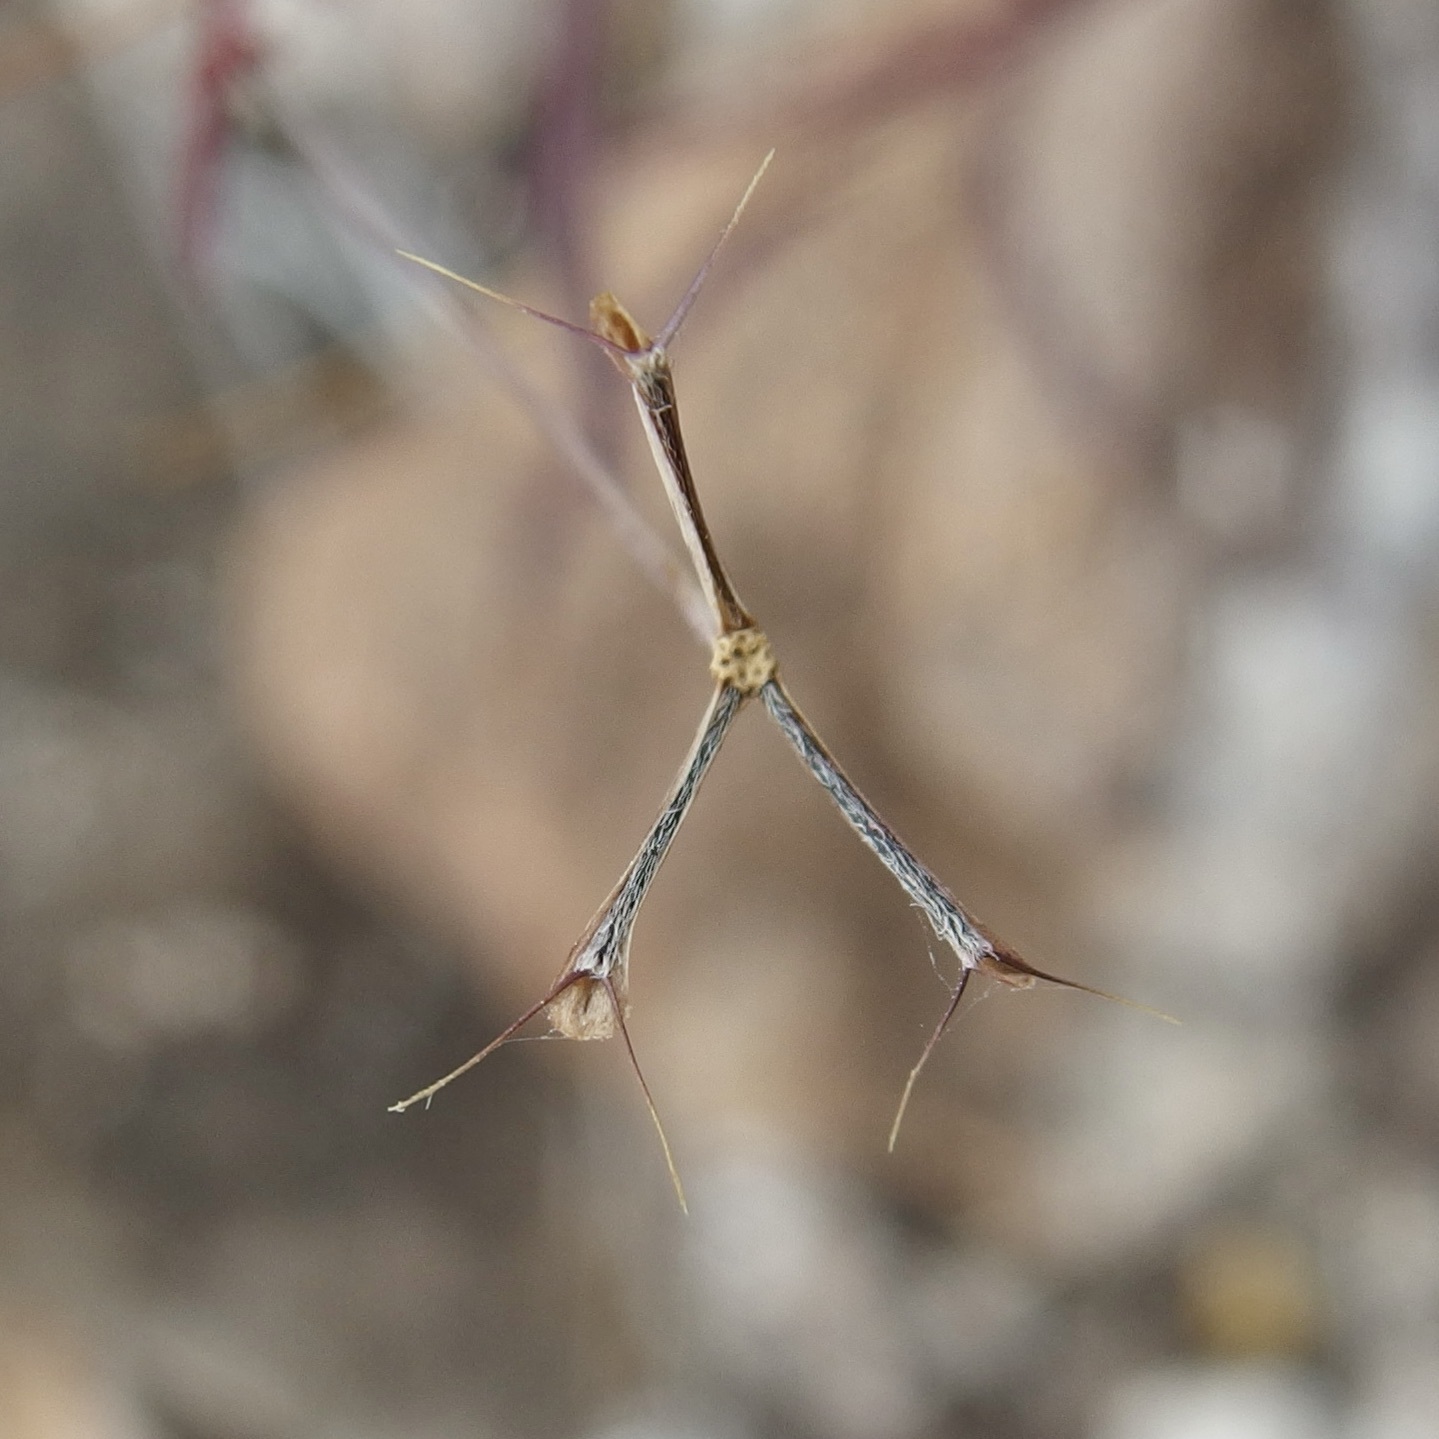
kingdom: Plantae
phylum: Tracheophyta
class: Magnoliopsida
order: Asterales
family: Asteraceae
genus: Pectis
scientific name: Pectis vollmeri
